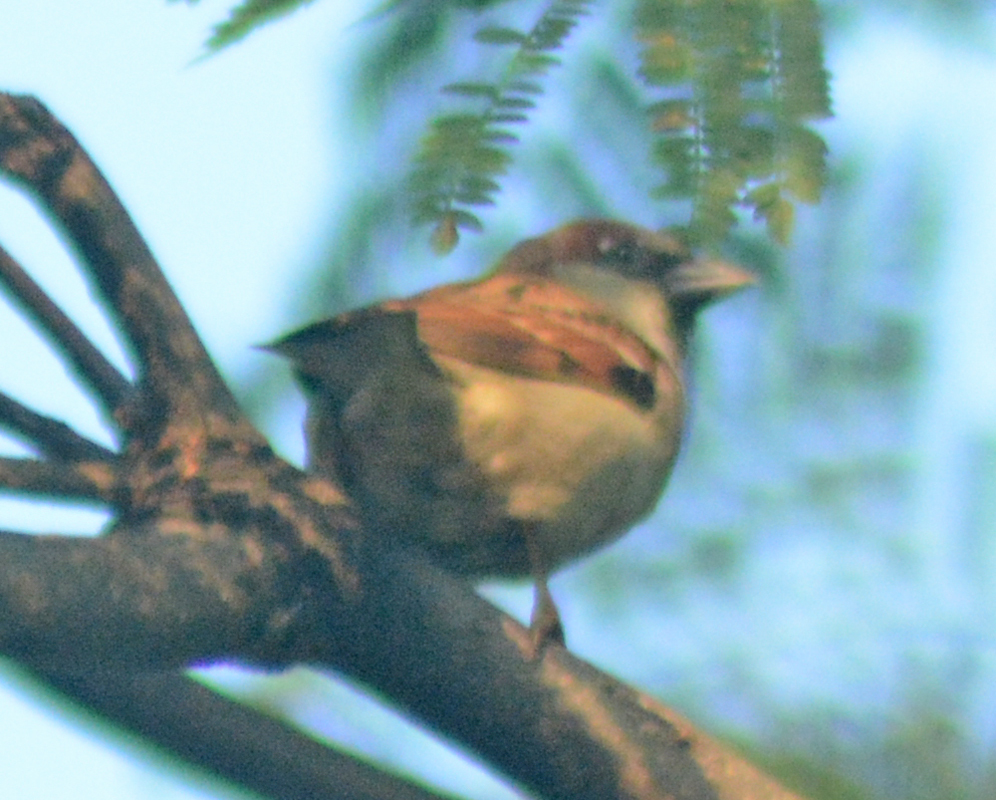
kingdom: Animalia
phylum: Chordata
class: Aves
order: Passeriformes
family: Passeridae
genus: Passer
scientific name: Passer domesticus
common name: House sparrow
